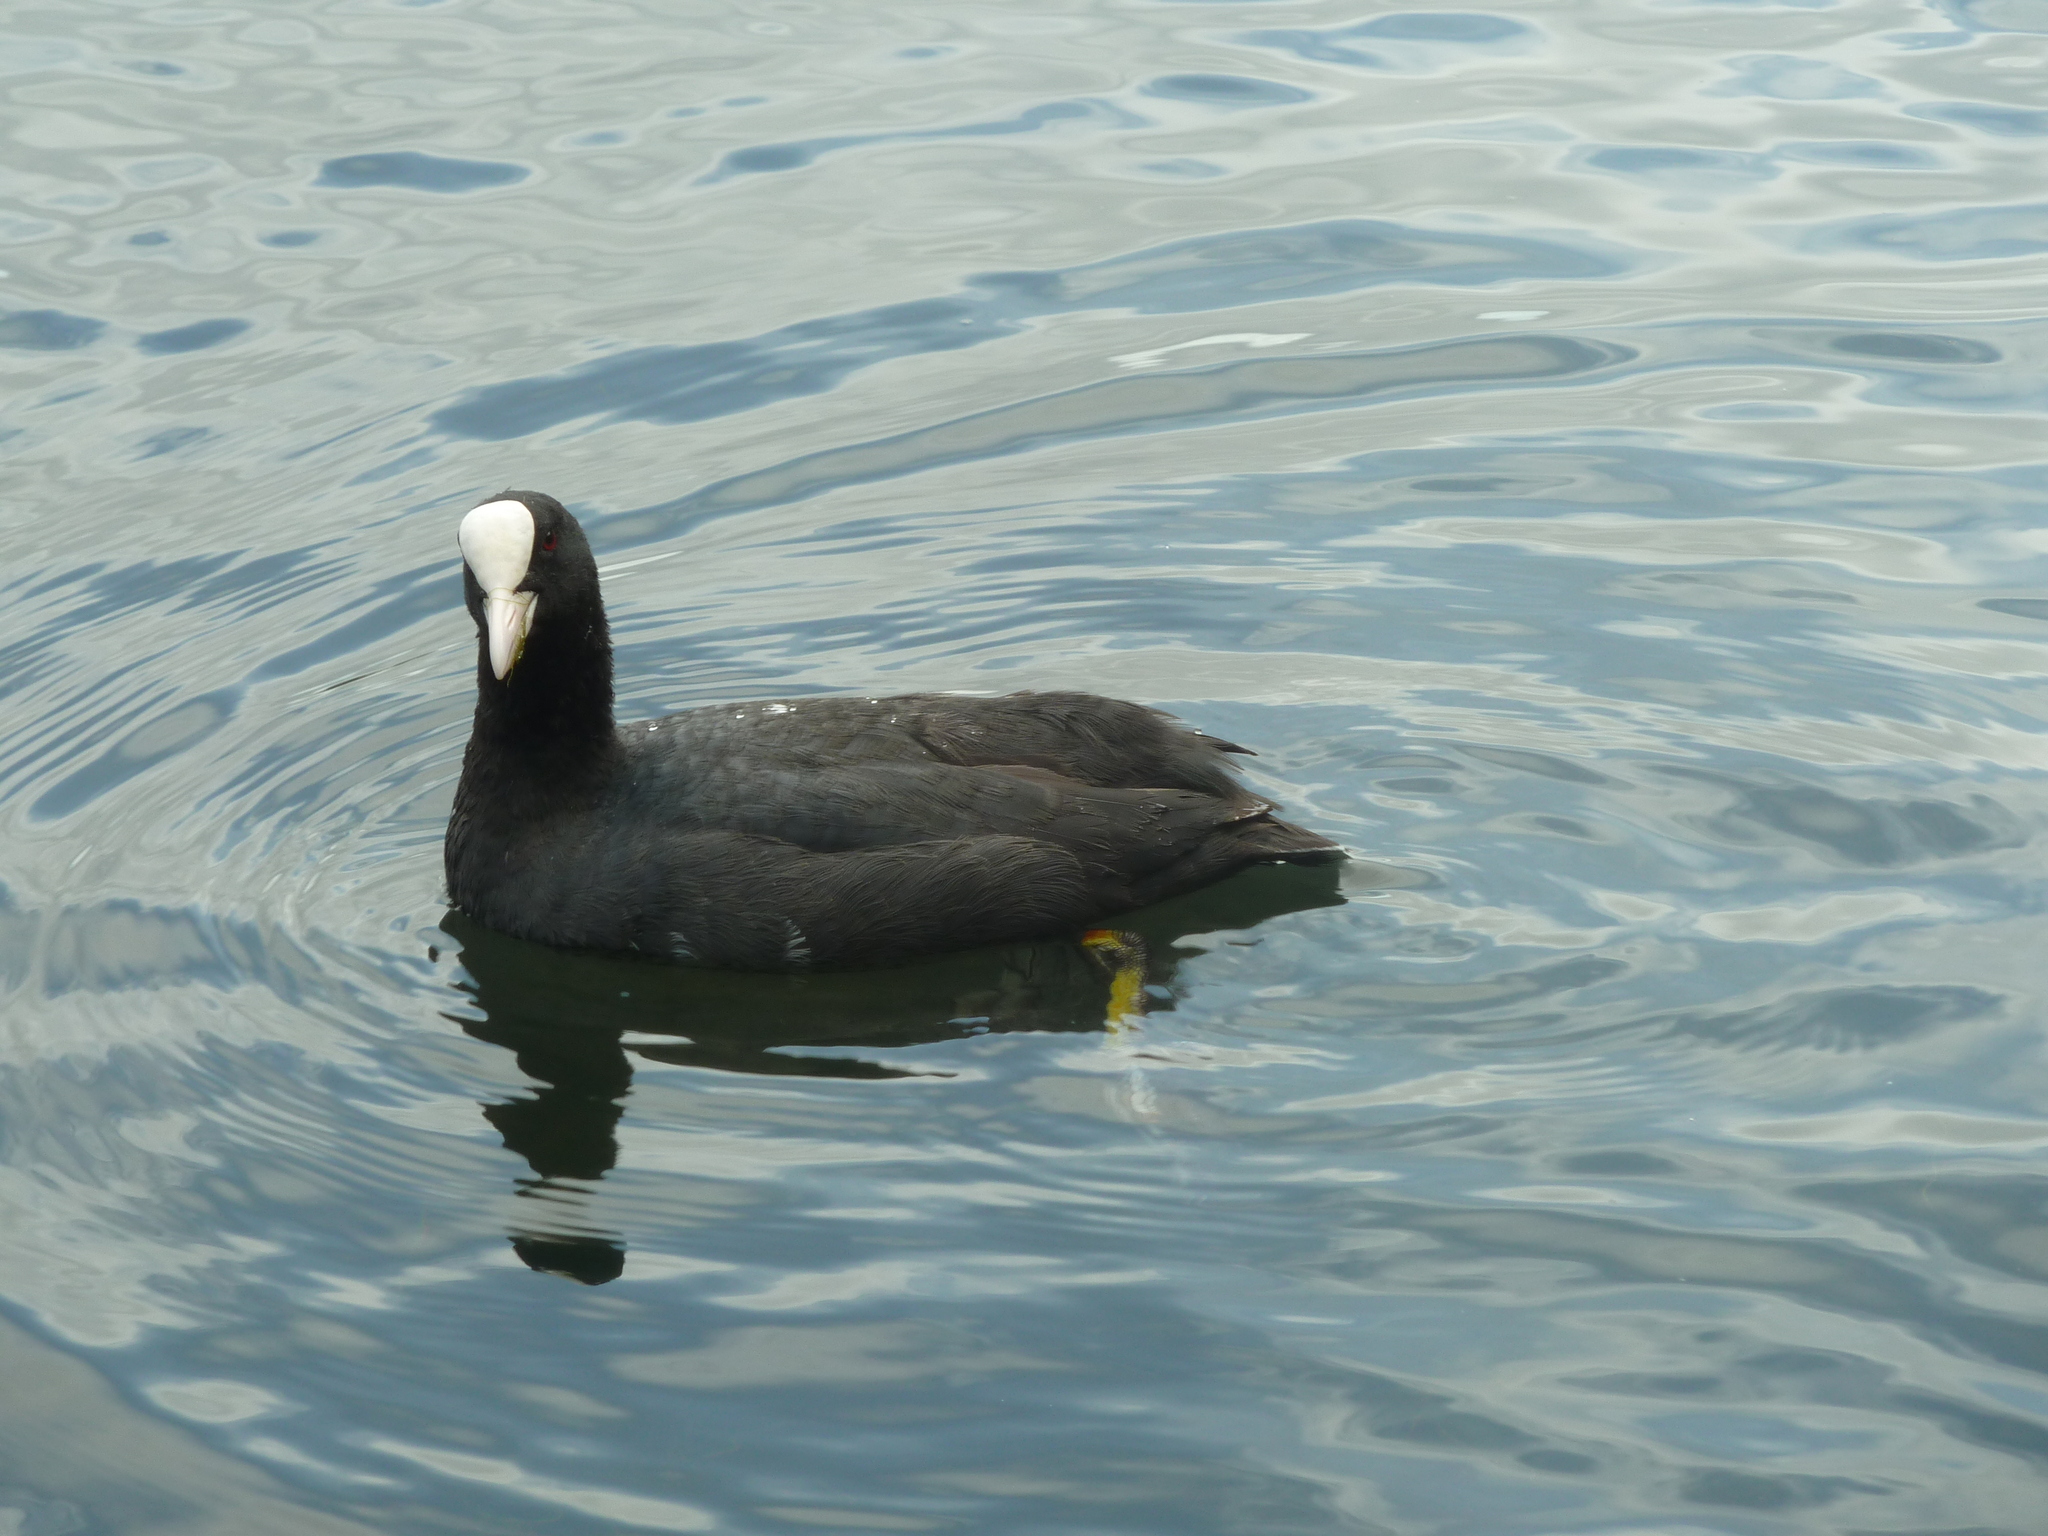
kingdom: Animalia
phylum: Chordata
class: Aves
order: Gruiformes
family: Rallidae
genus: Fulica
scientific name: Fulica atra
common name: Eurasian coot
